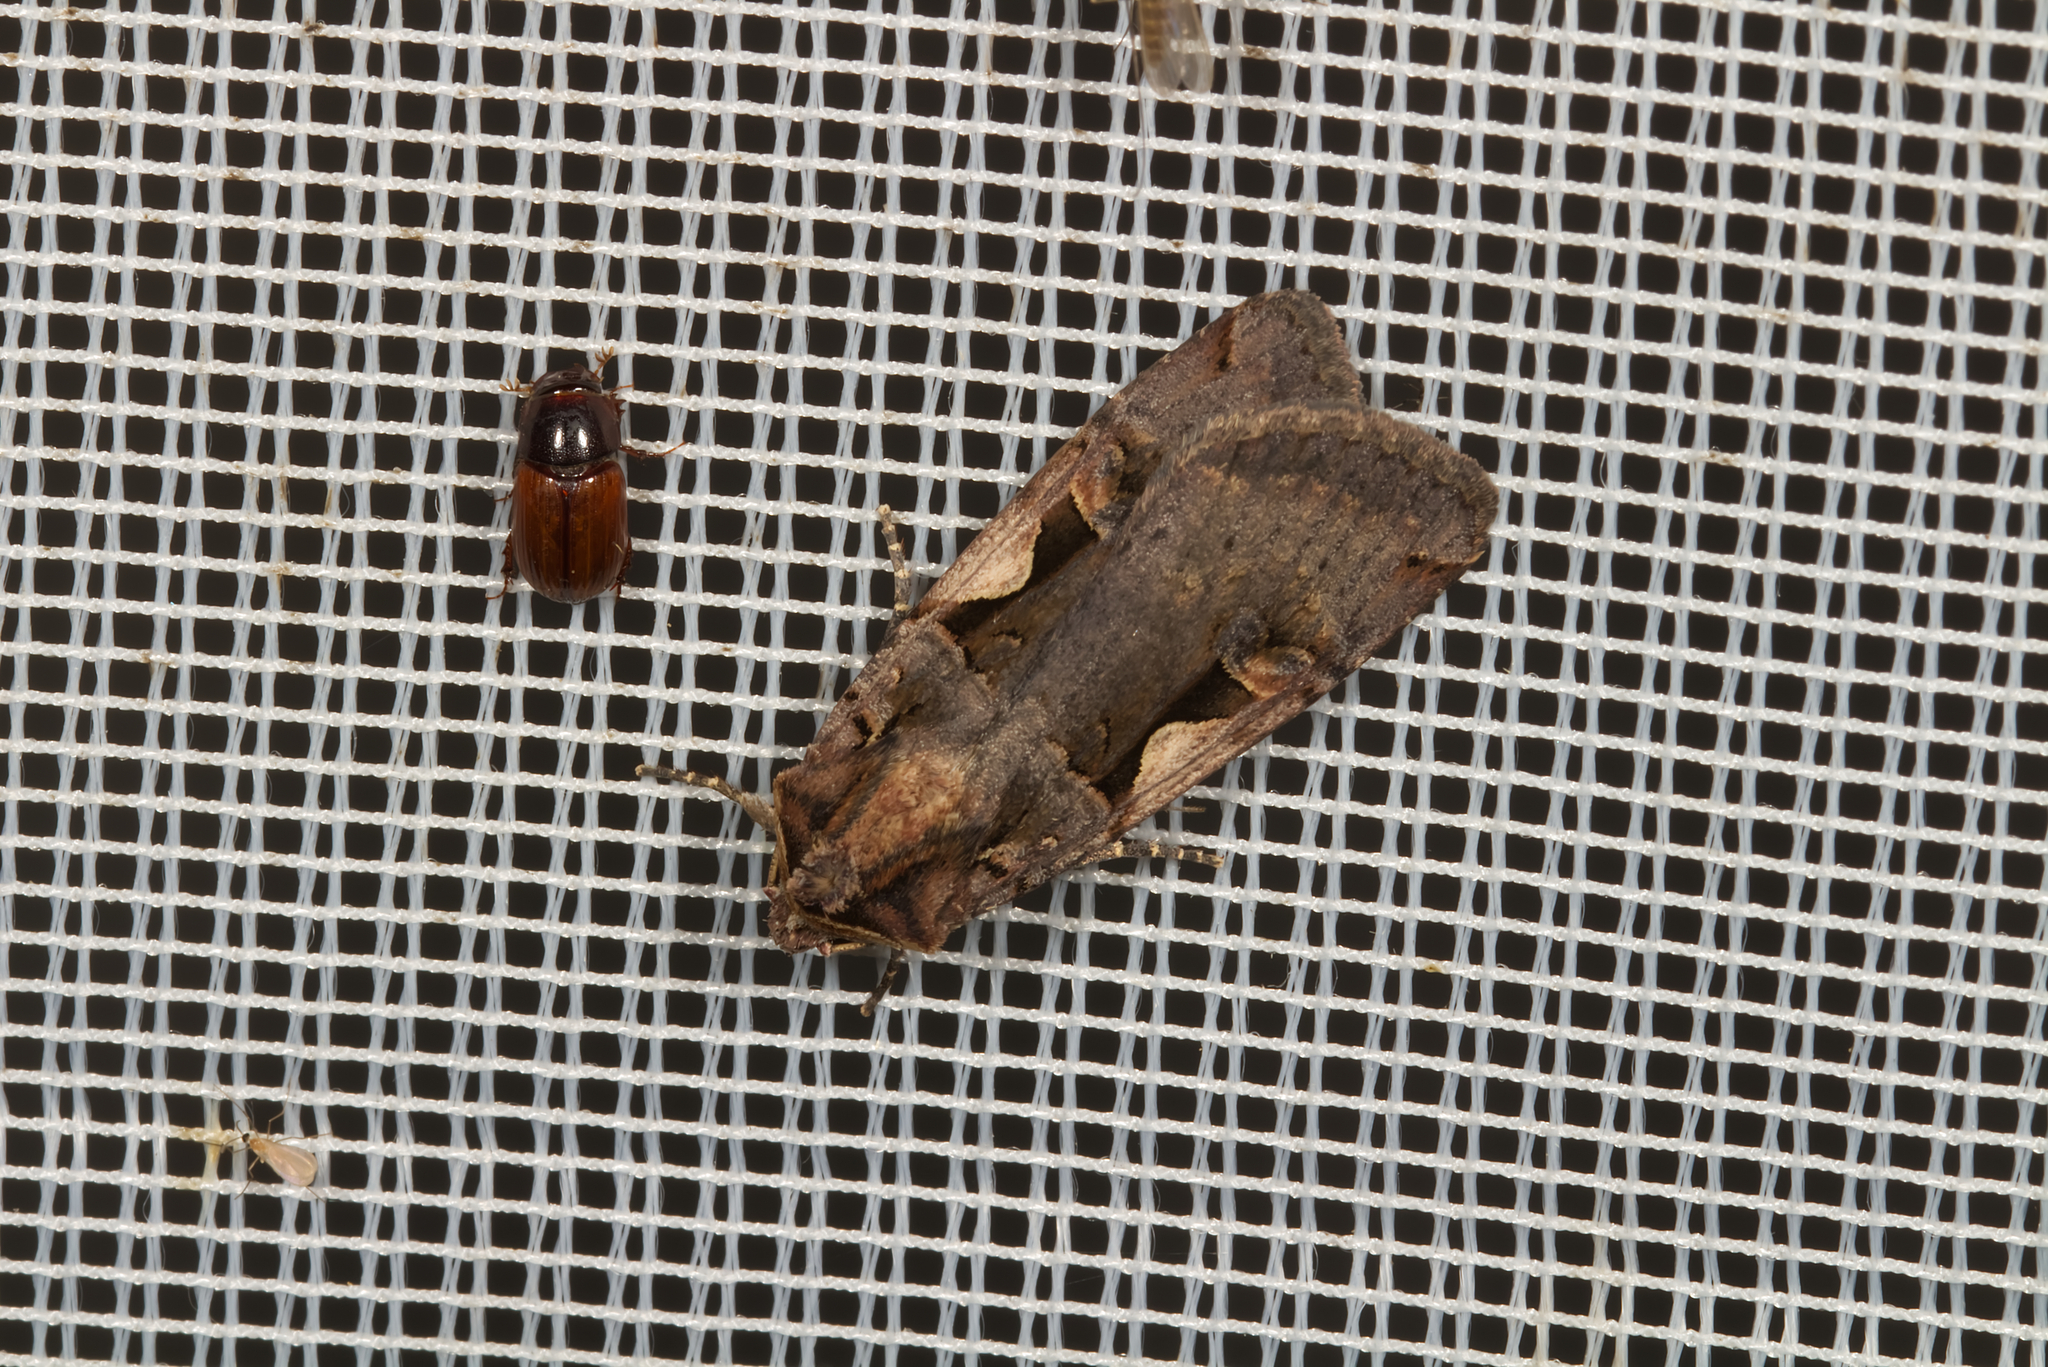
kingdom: Animalia
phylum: Arthropoda
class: Insecta
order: Lepidoptera
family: Noctuidae
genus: Xestia
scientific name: Xestia c-nigrum
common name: Setaceous hebrew character
